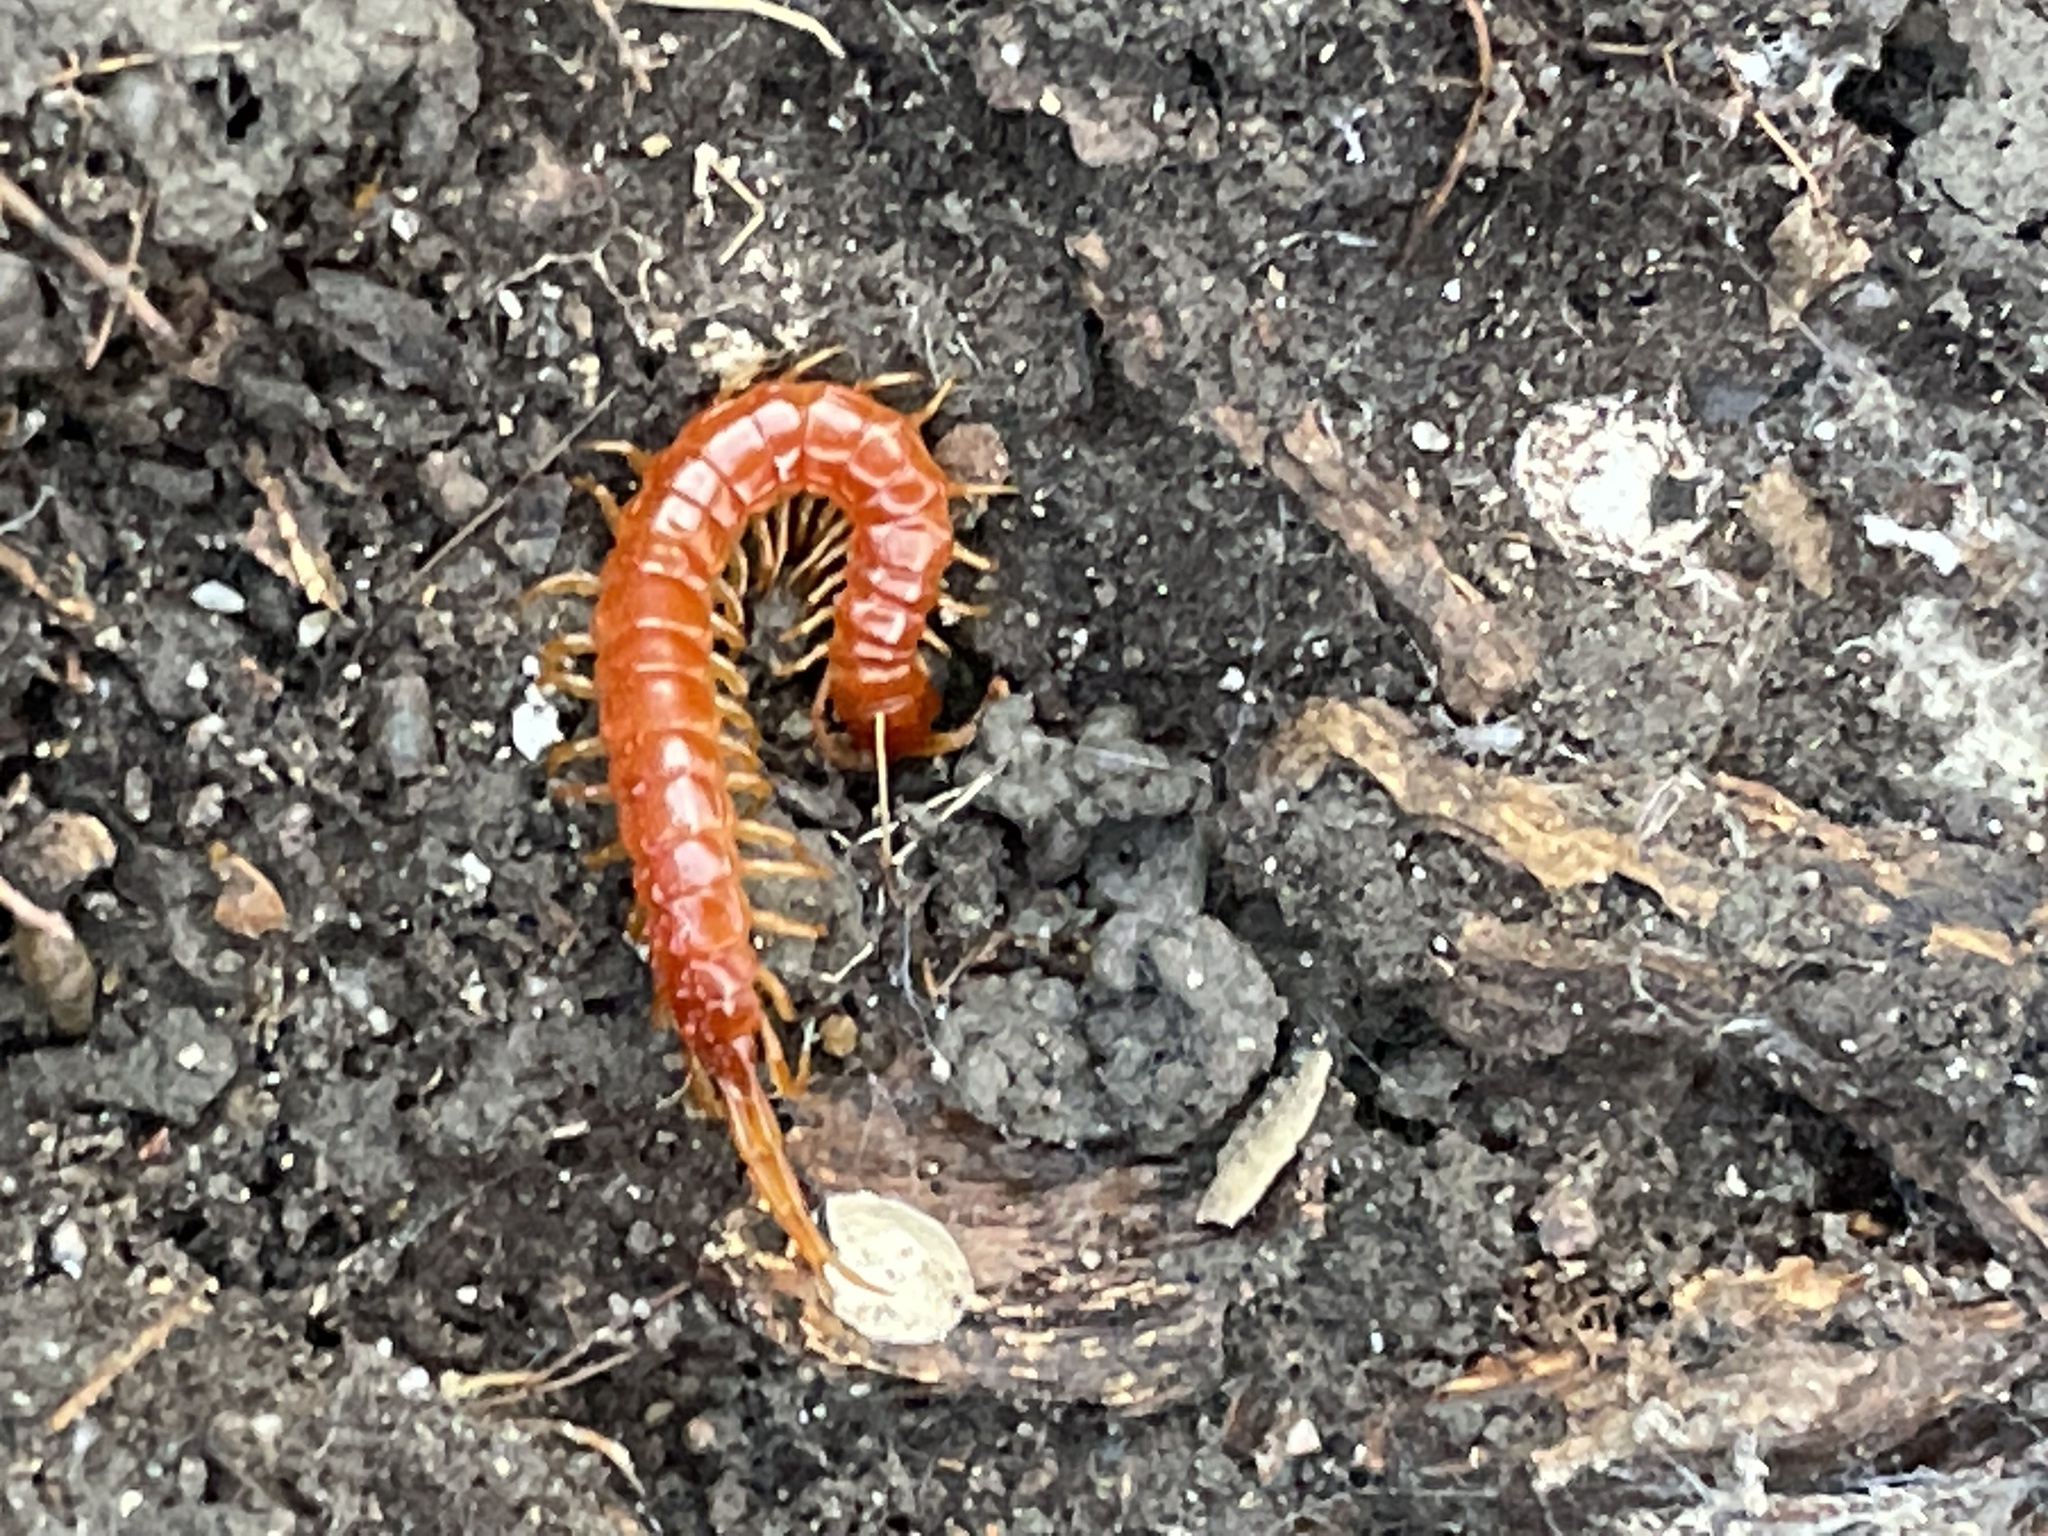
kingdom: Animalia
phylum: Arthropoda
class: Chilopoda
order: Scolopendromorpha
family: Scolopocryptopidae
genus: Scolopocryptops
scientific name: Scolopocryptops sexspinosus
